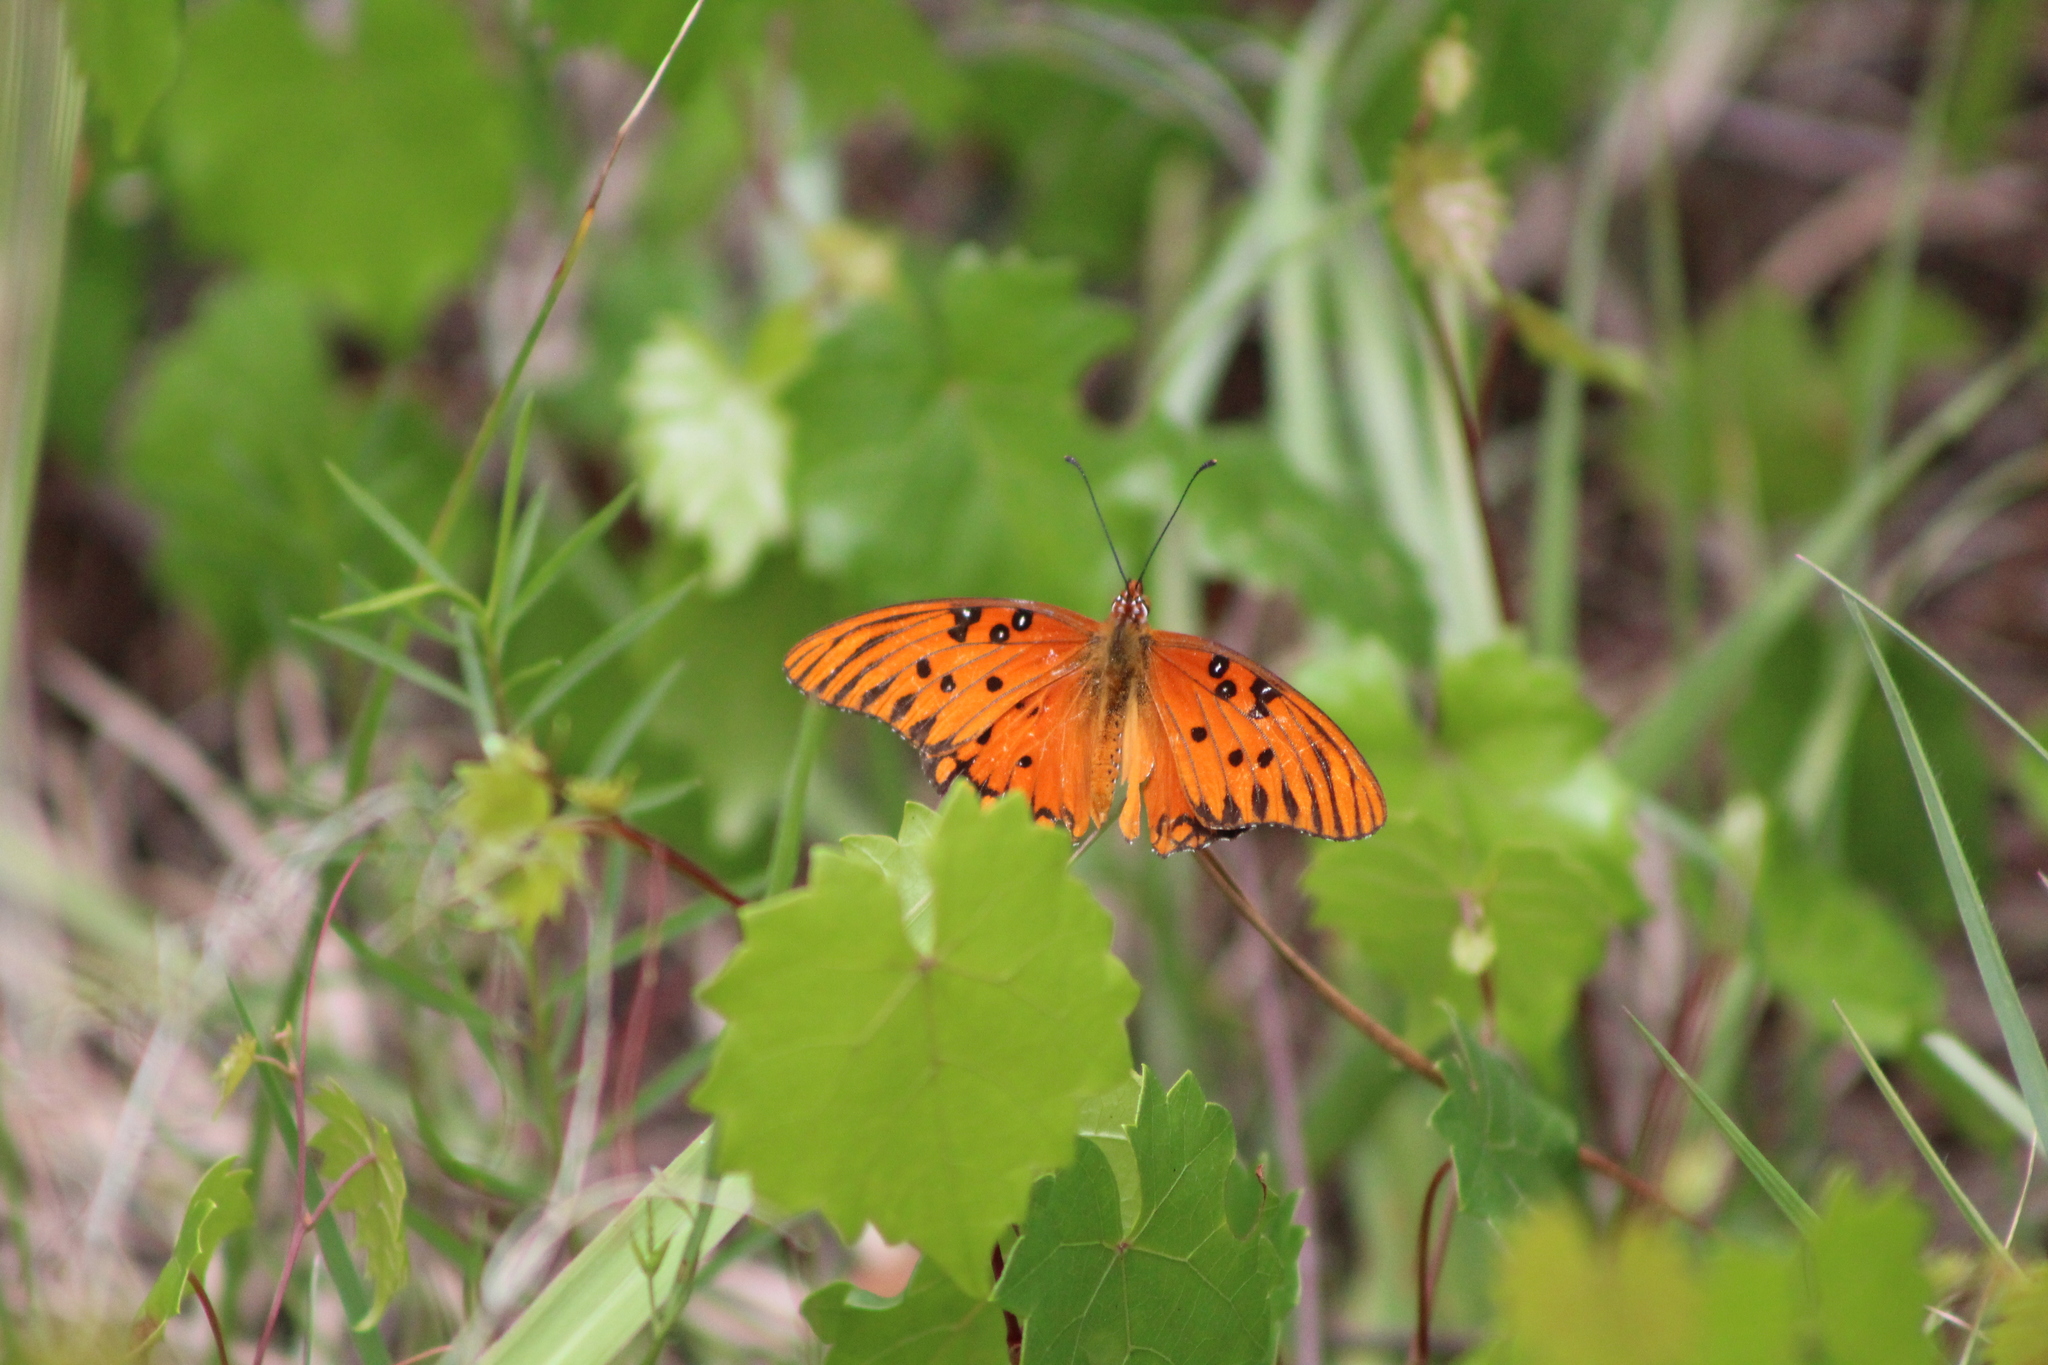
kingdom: Animalia
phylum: Arthropoda
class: Insecta
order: Lepidoptera
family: Nymphalidae
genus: Dione
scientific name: Dione vanillae
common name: Gulf fritillary
